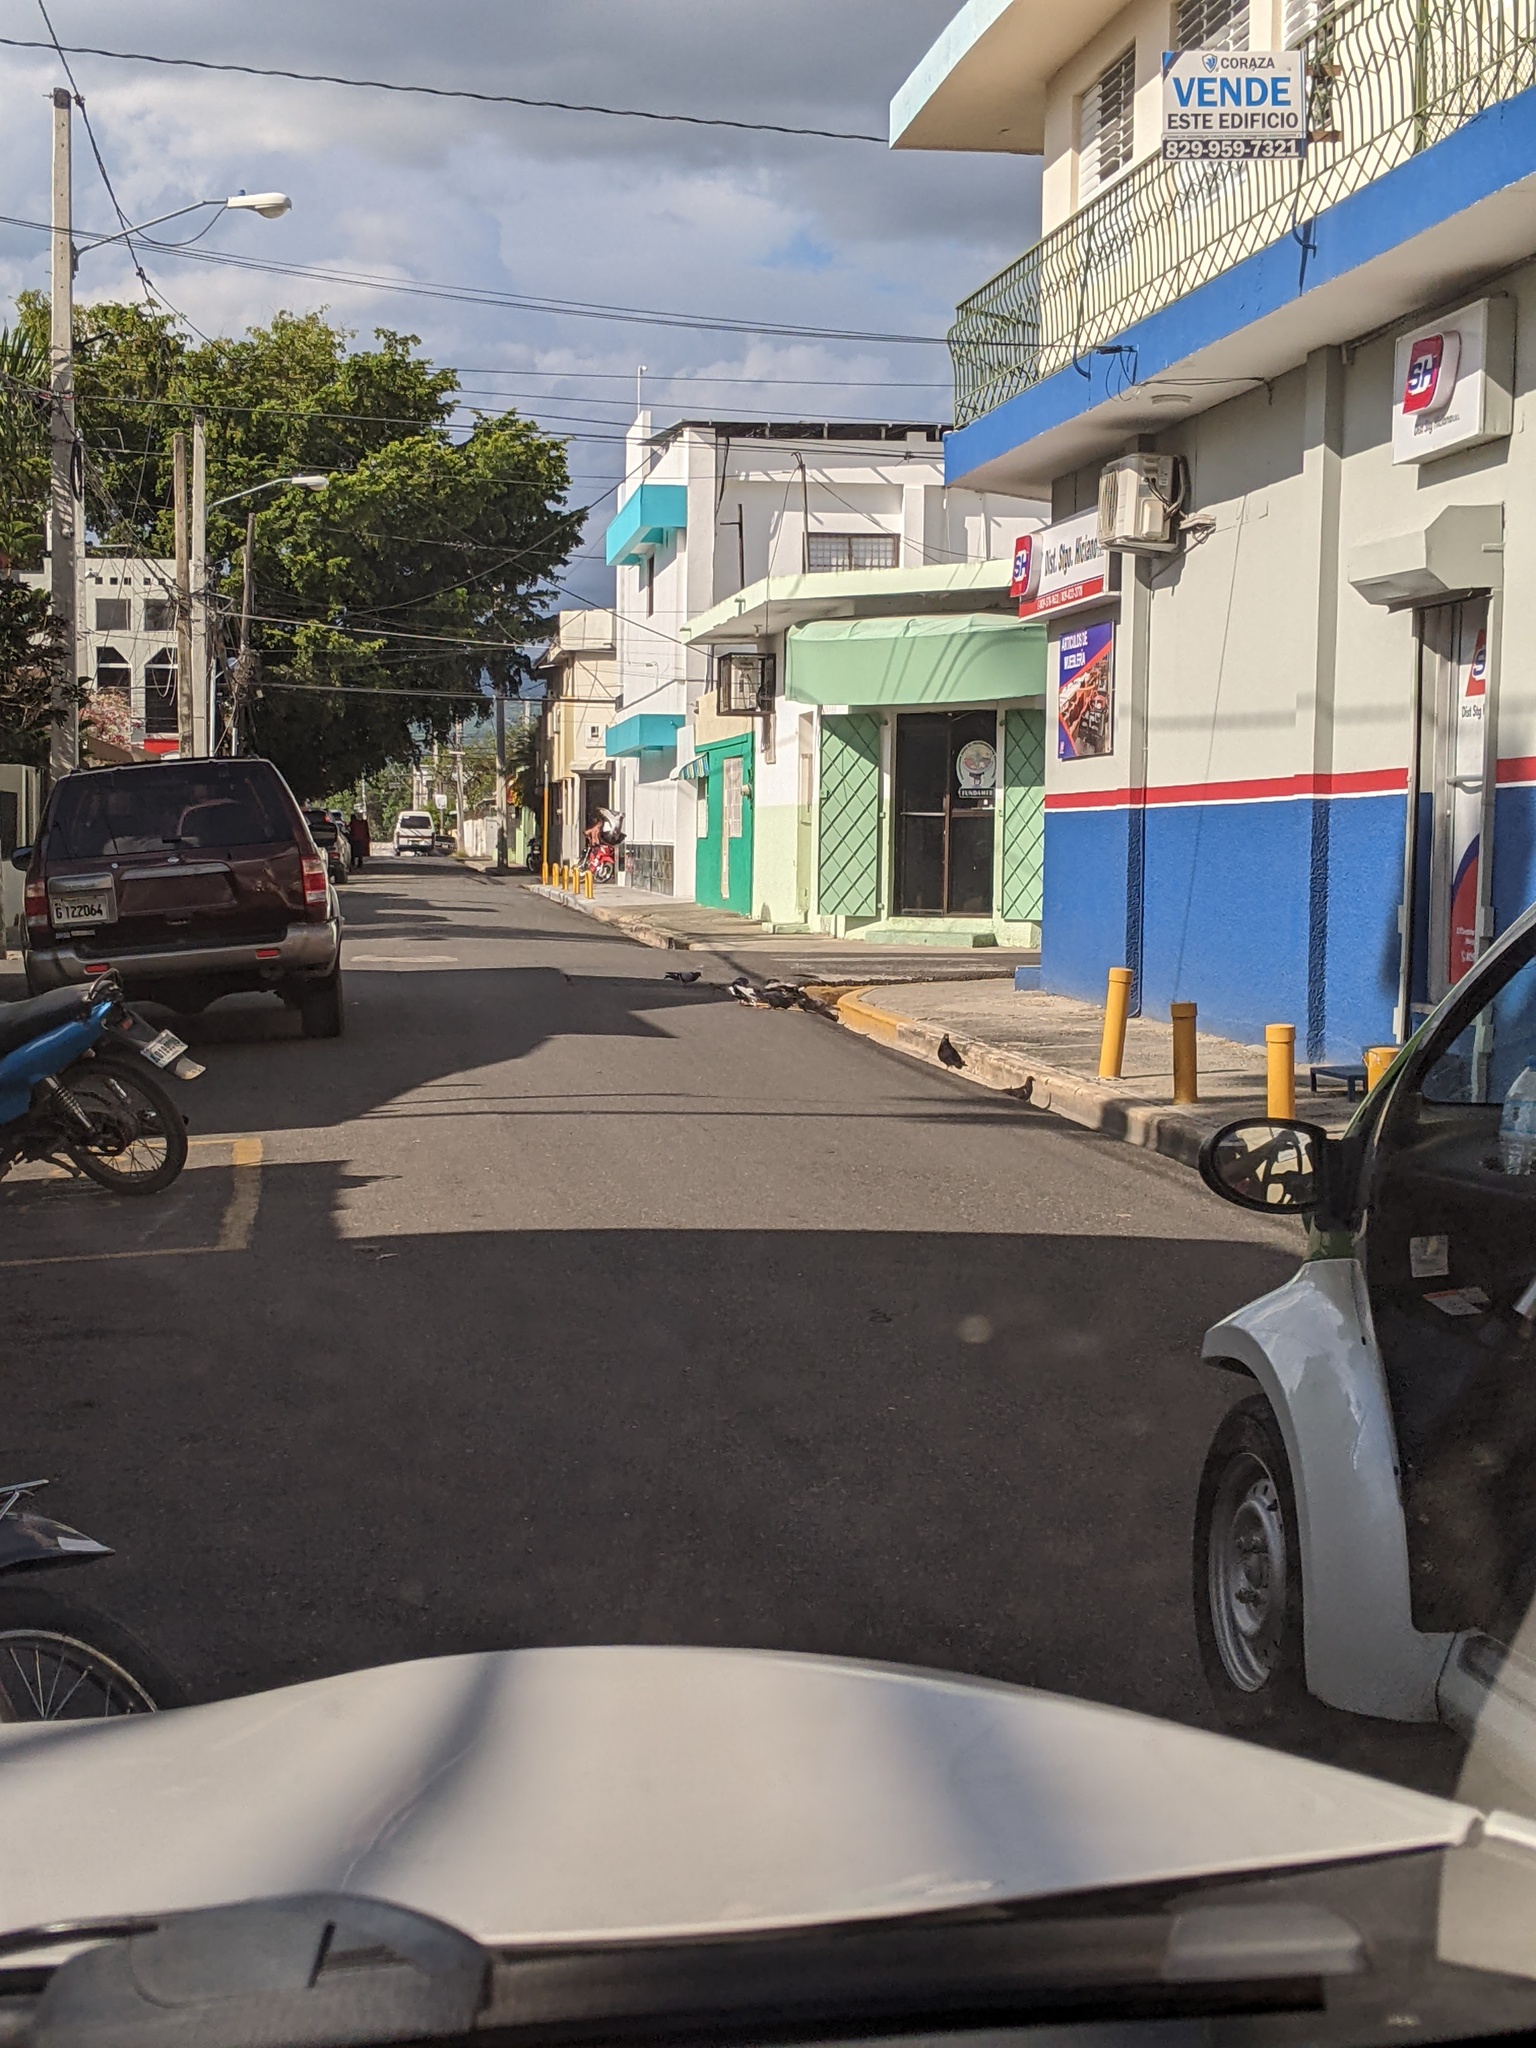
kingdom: Animalia
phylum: Chordata
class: Aves
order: Columbiformes
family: Columbidae
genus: Columba
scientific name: Columba livia
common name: Rock pigeon
